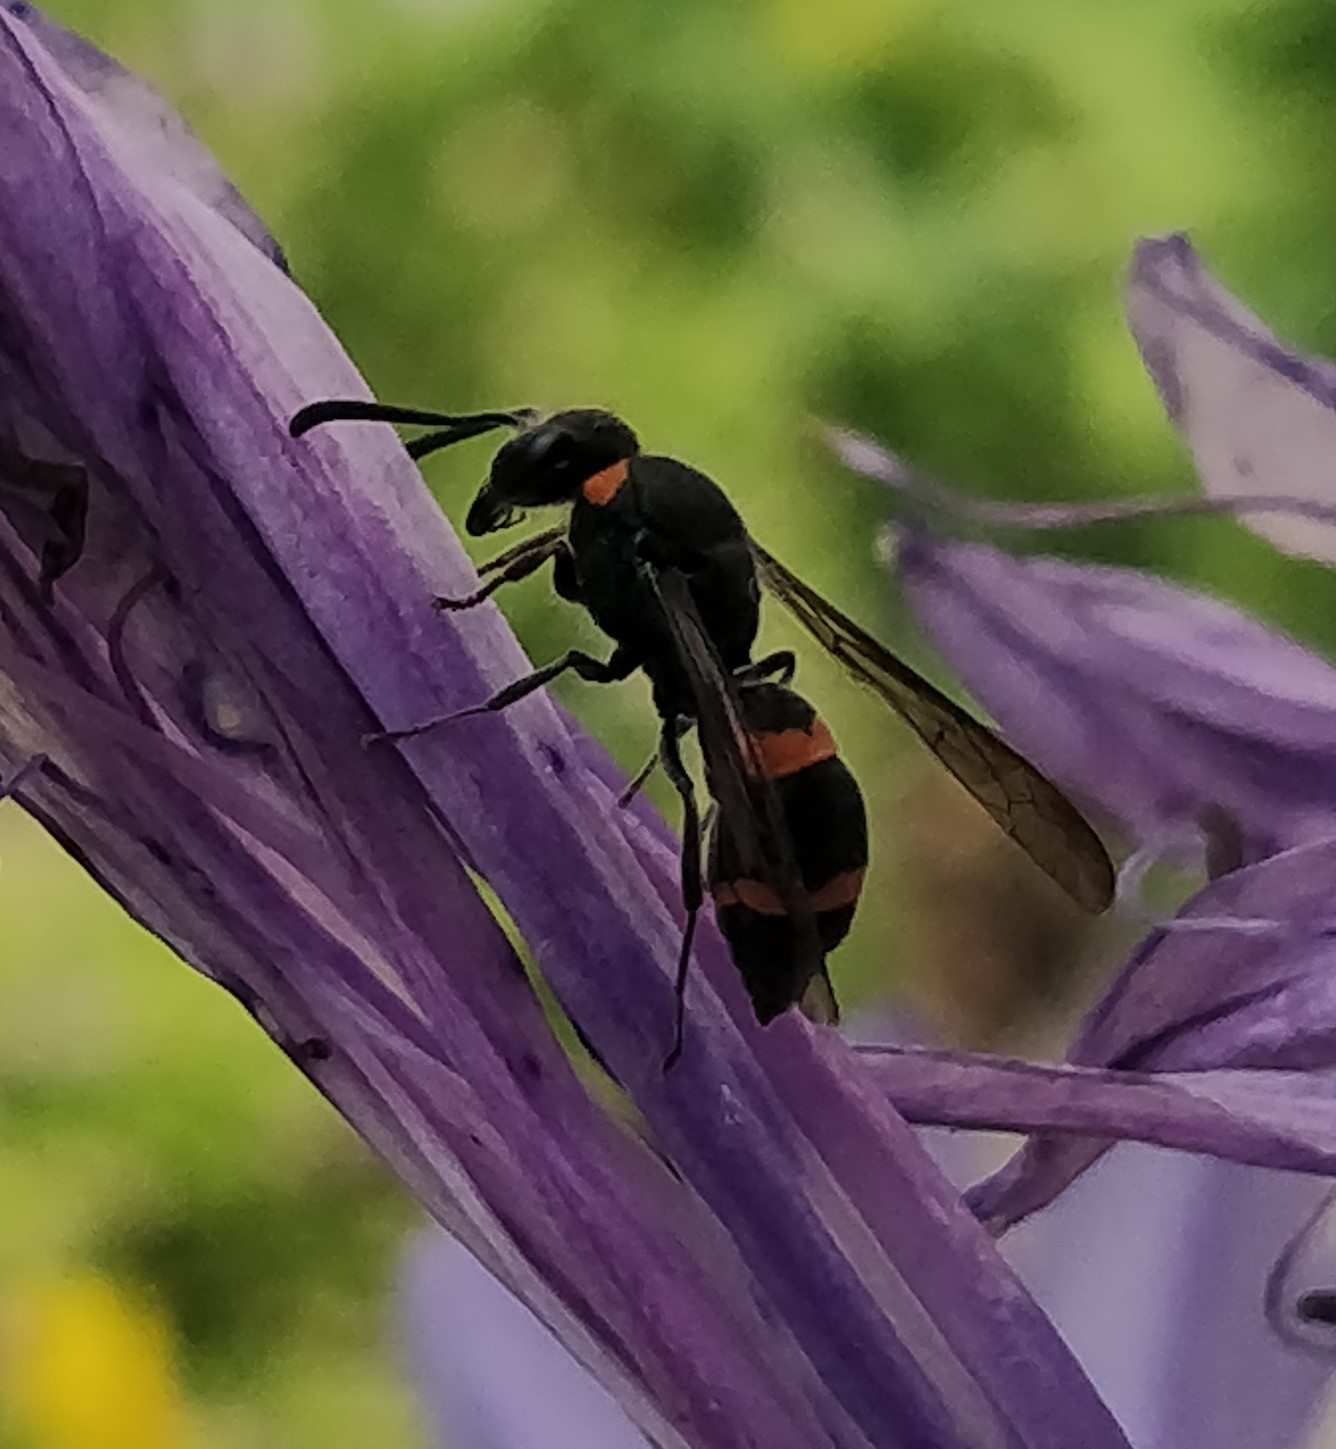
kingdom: Animalia
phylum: Arthropoda
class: Insecta
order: Hymenoptera
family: Vespidae
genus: Ancistrocerus
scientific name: Ancistrocerus haematodes
